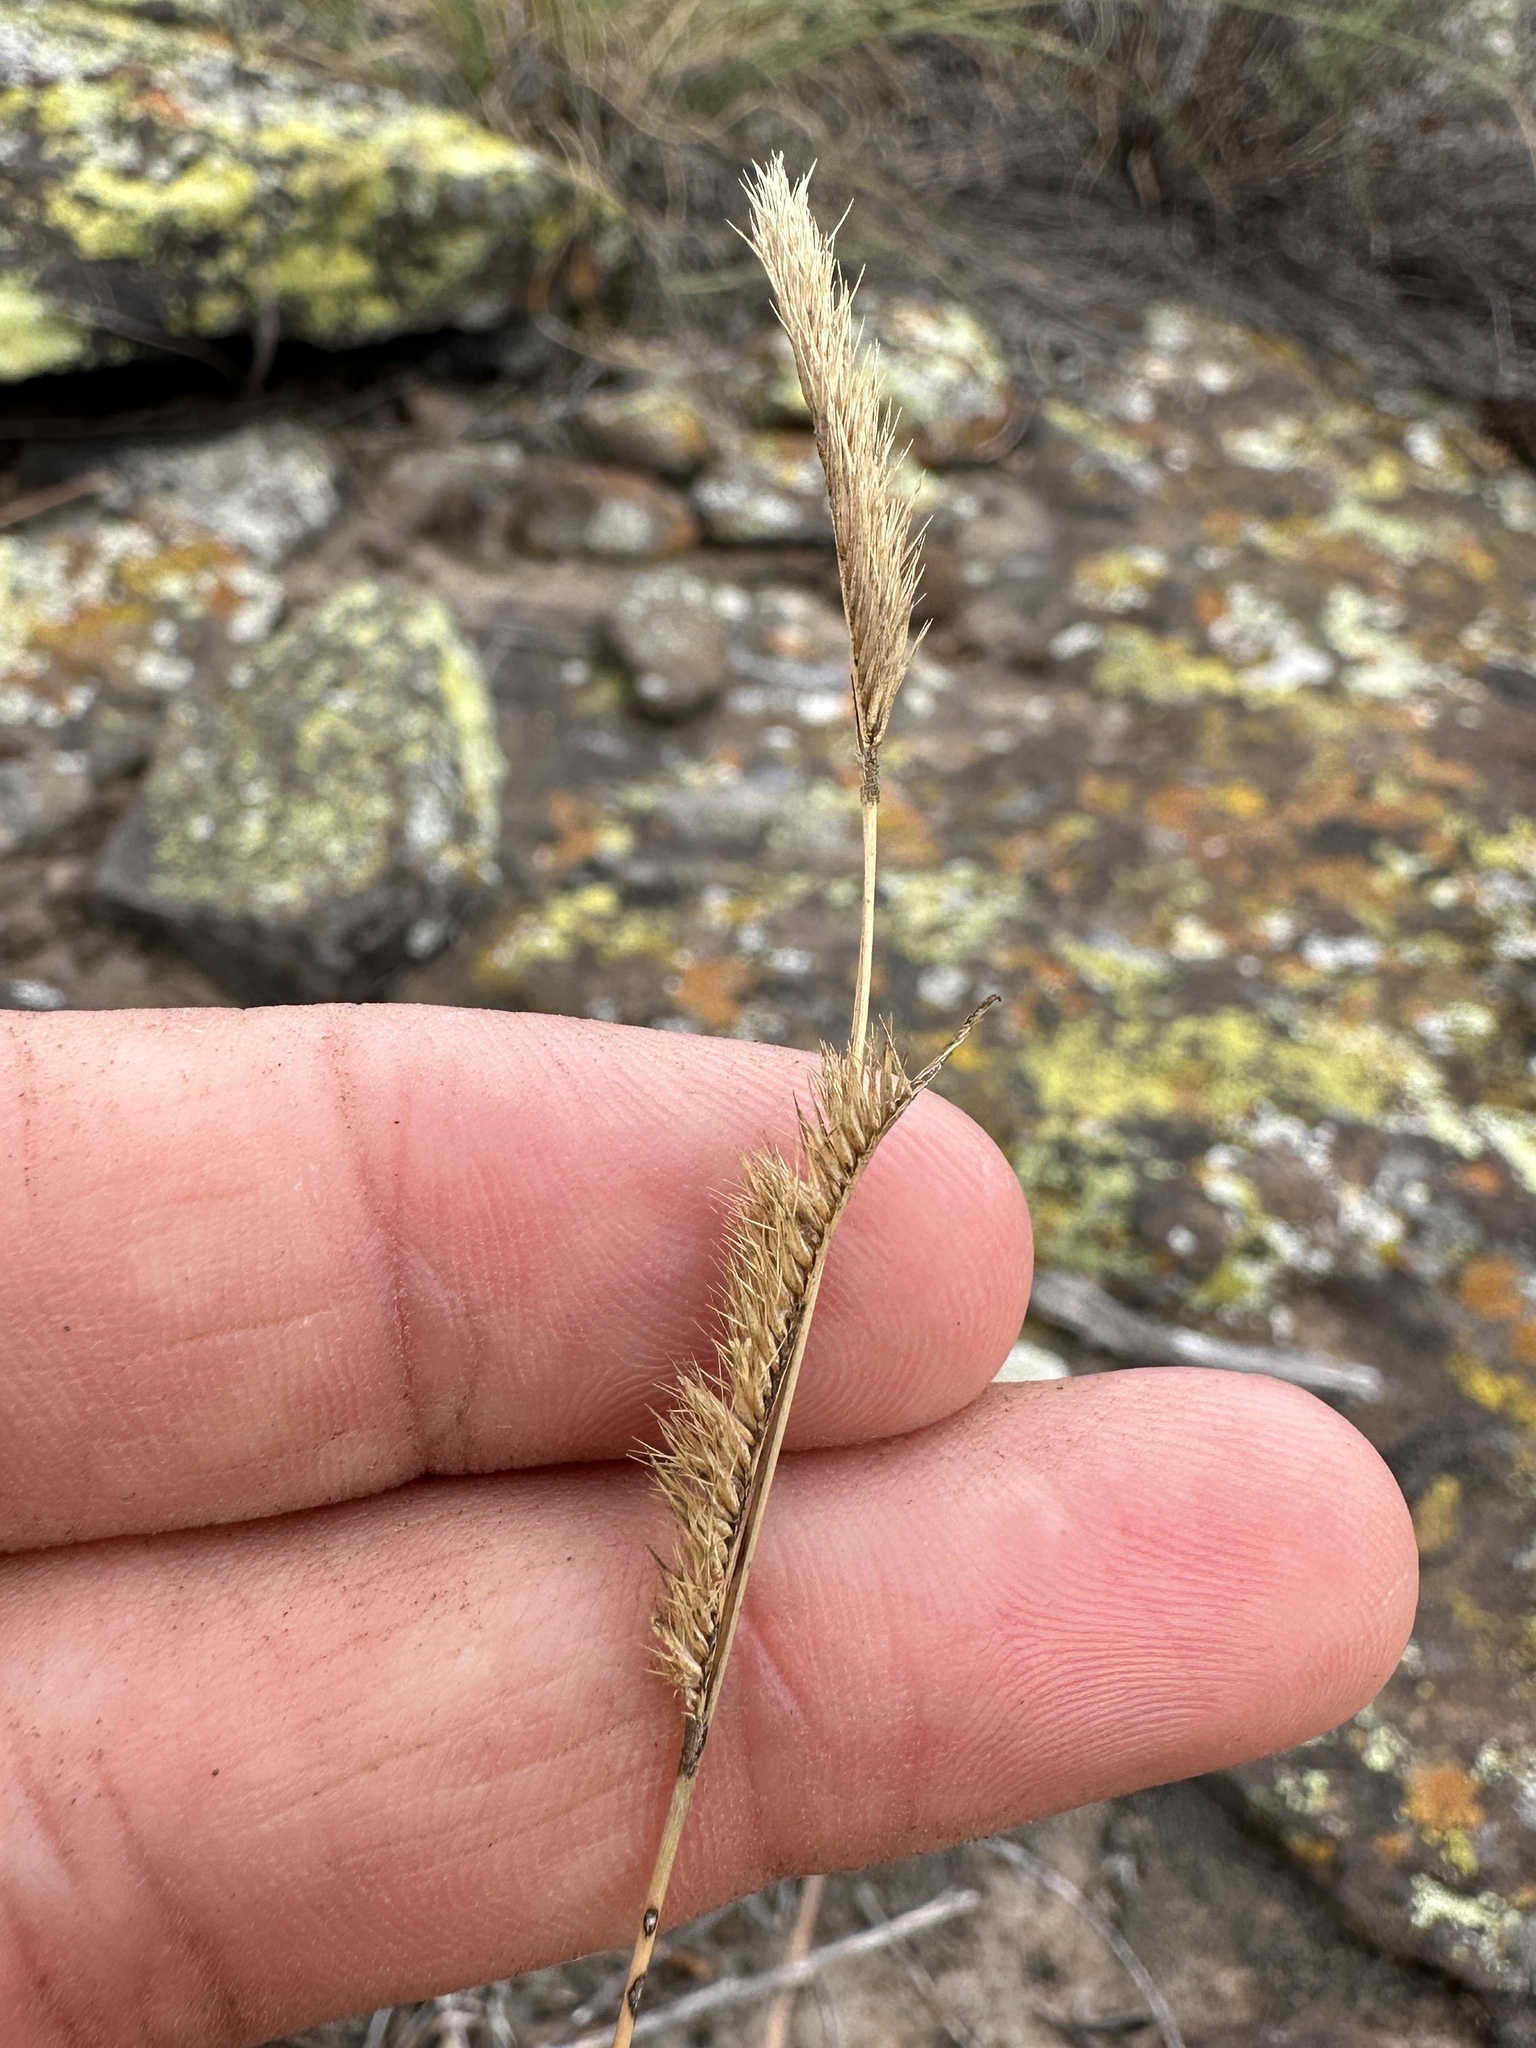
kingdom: Plantae
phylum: Tracheophyta
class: Liliopsida
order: Poales
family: Poaceae
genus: Bouteloua
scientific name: Bouteloua gracilis
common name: Blue grama
